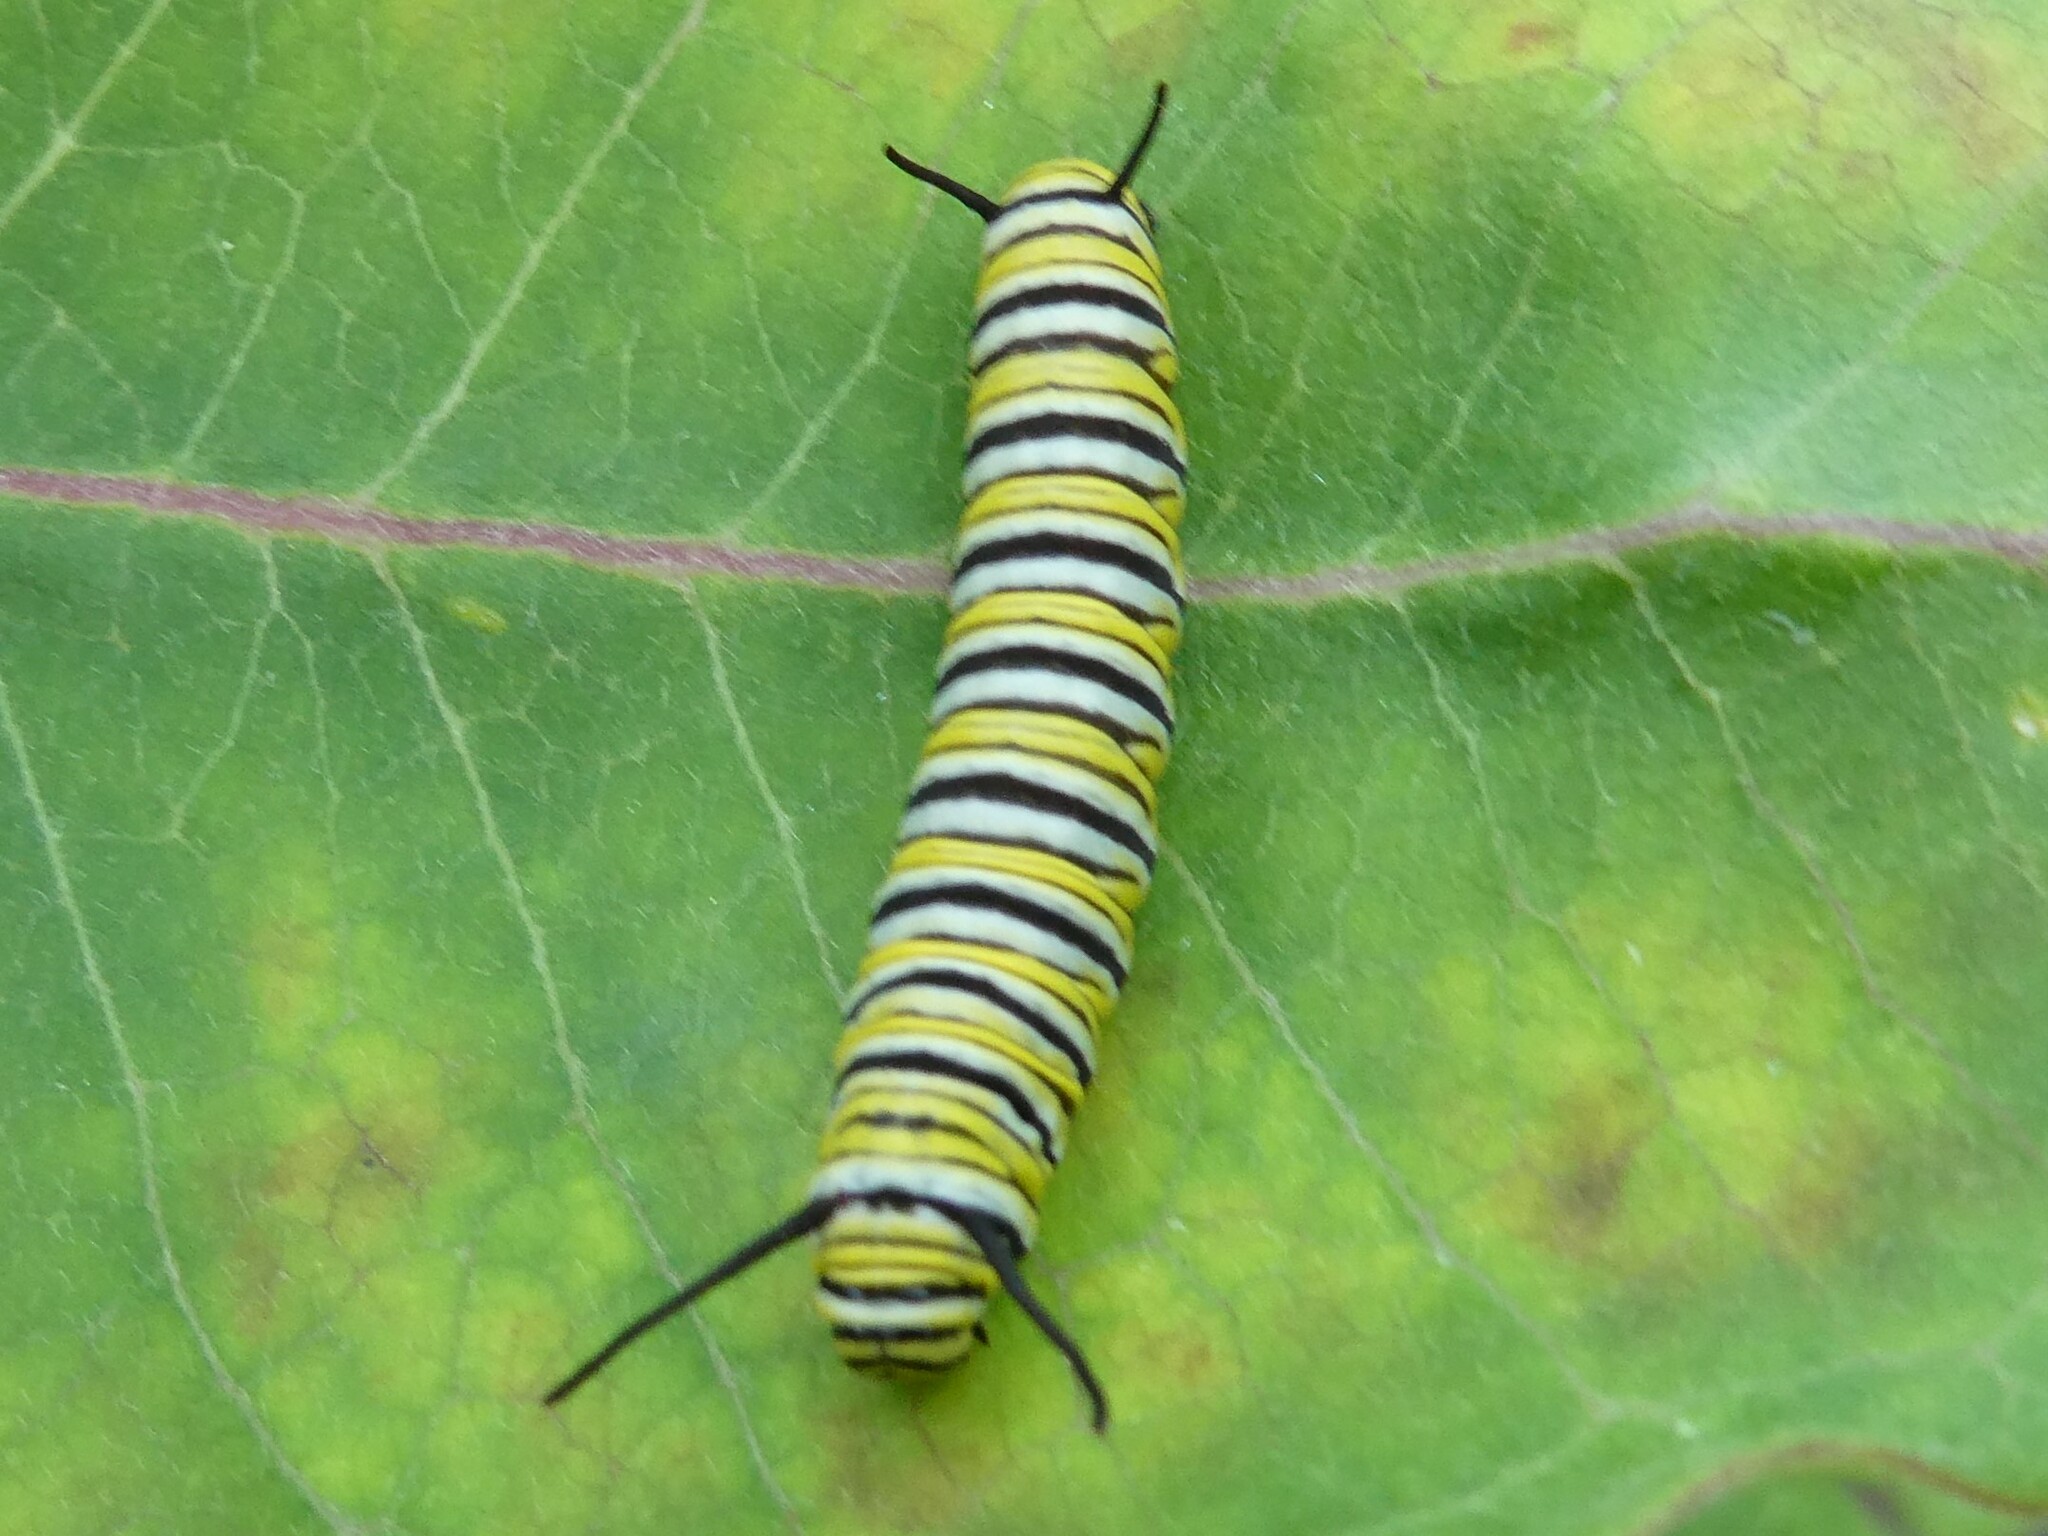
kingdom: Animalia
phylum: Arthropoda
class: Insecta
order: Lepidoptera
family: Nymphalidae
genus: Danaus
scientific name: Danaus plexippus
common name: Monarch
